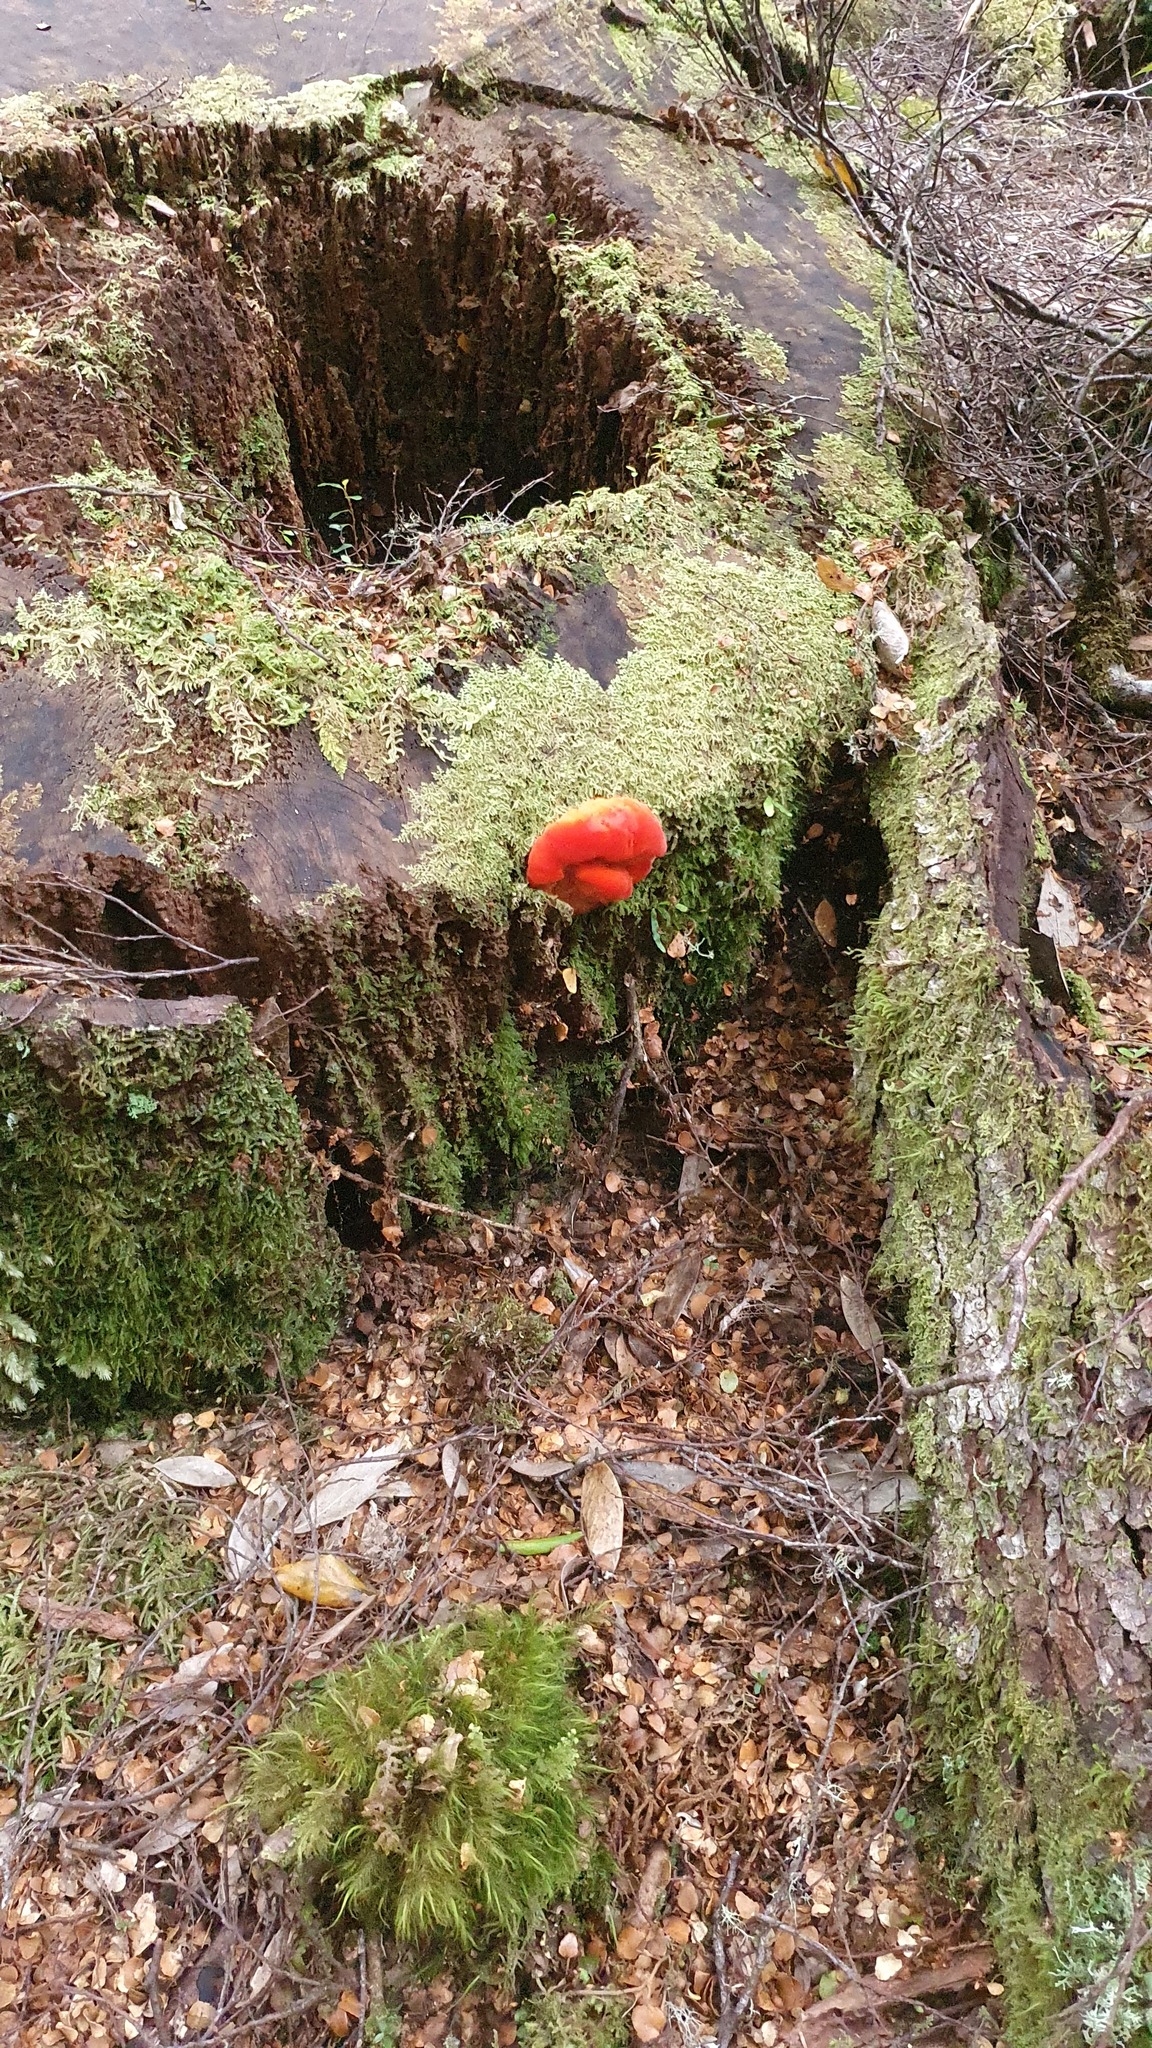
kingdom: Fungi
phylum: Basidiomycota
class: Agaricomycetes
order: Polyporales
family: Incrustoporiaceae
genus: Tyromyces
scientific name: Tyromyces pulcherrimus
